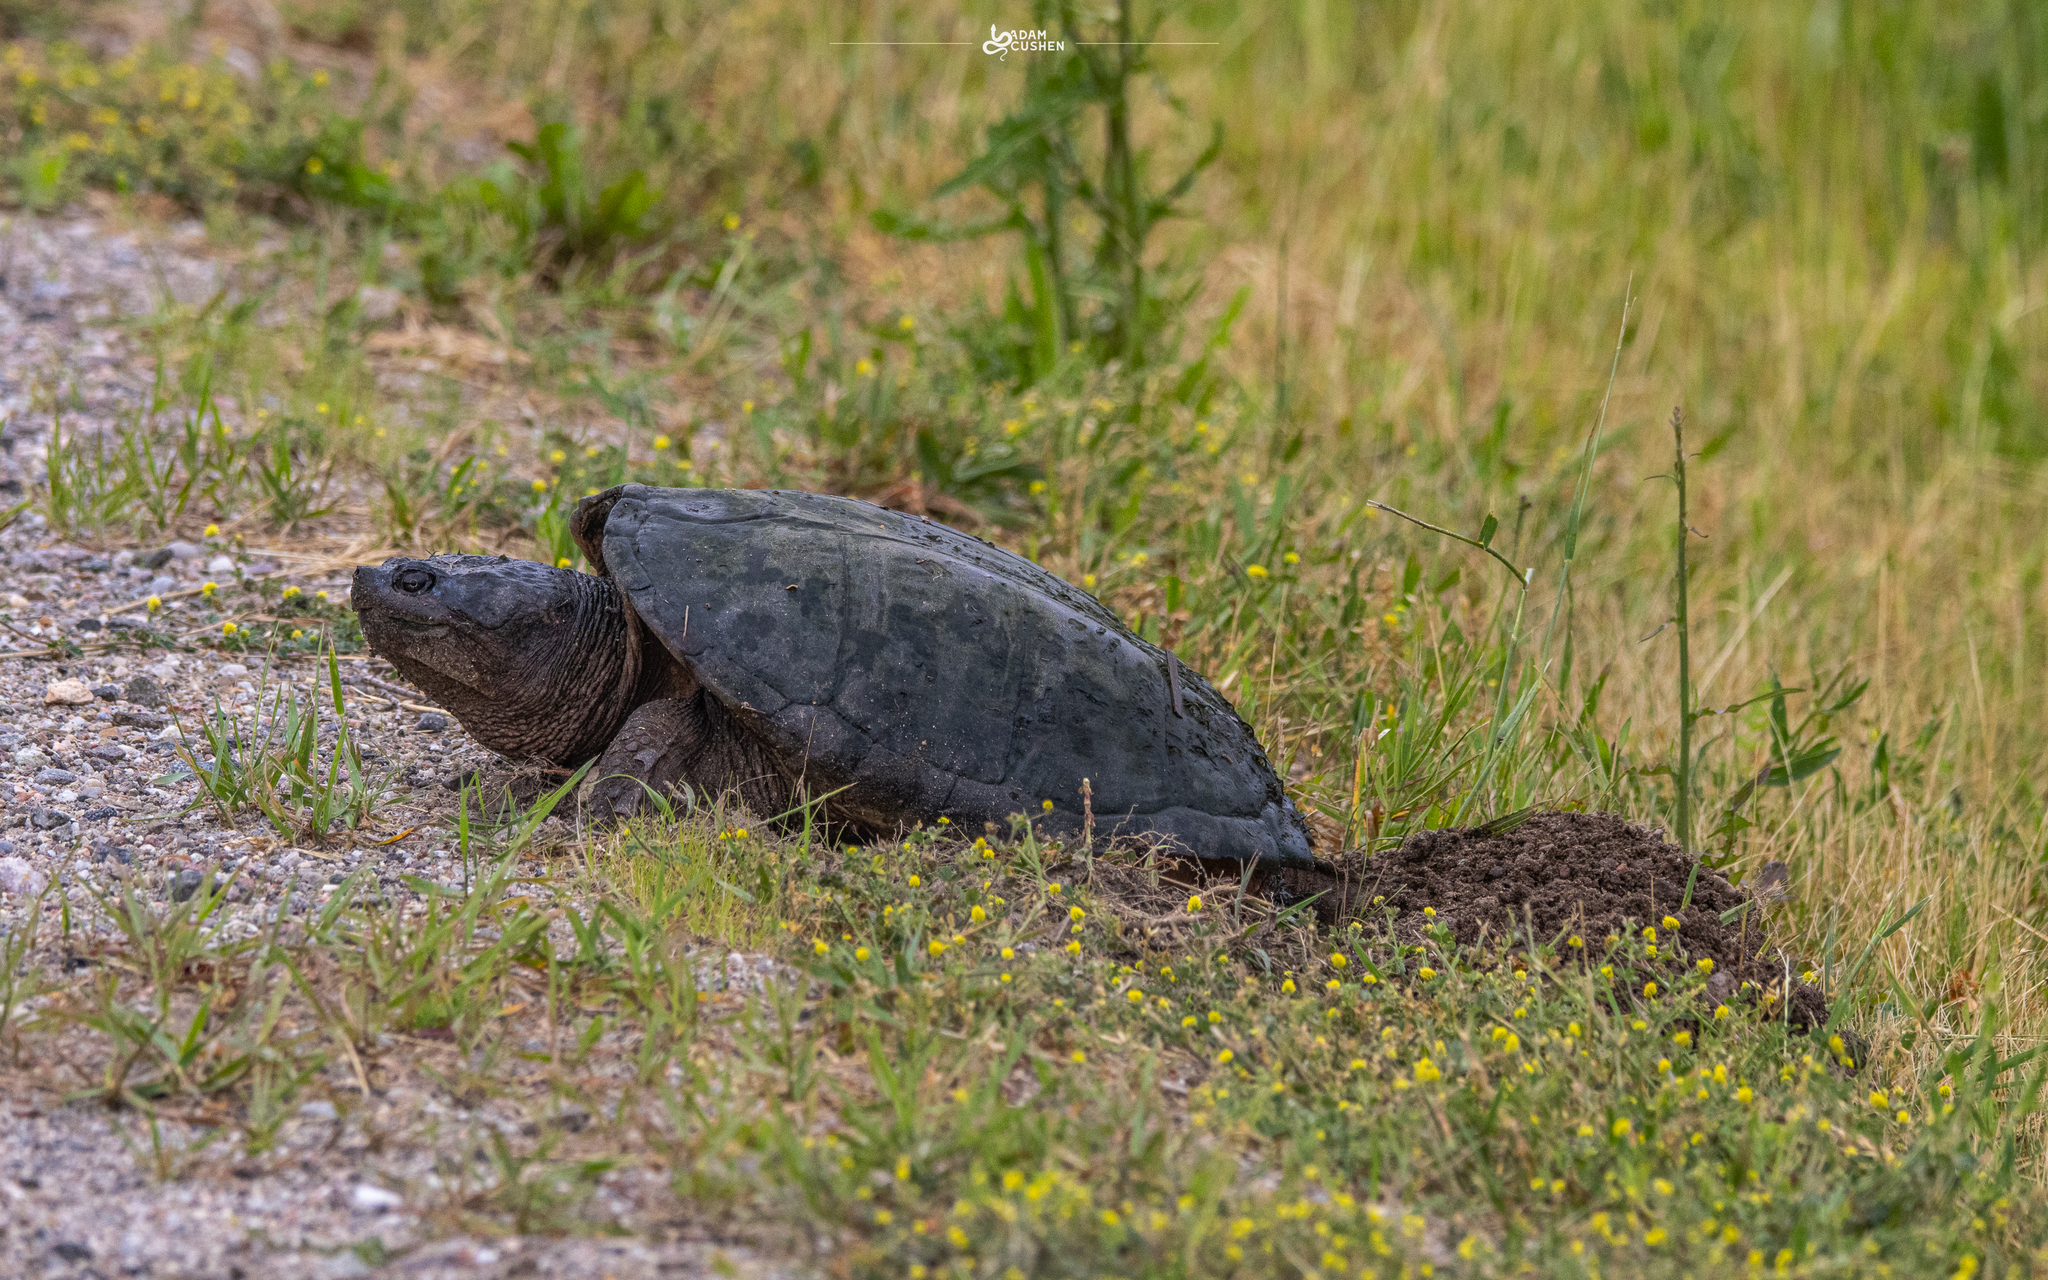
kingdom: Animalia
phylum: Chordata
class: Testudines
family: Chelydridae
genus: Chelydra
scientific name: Chelydra serpentina
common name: Common snapping turtle
